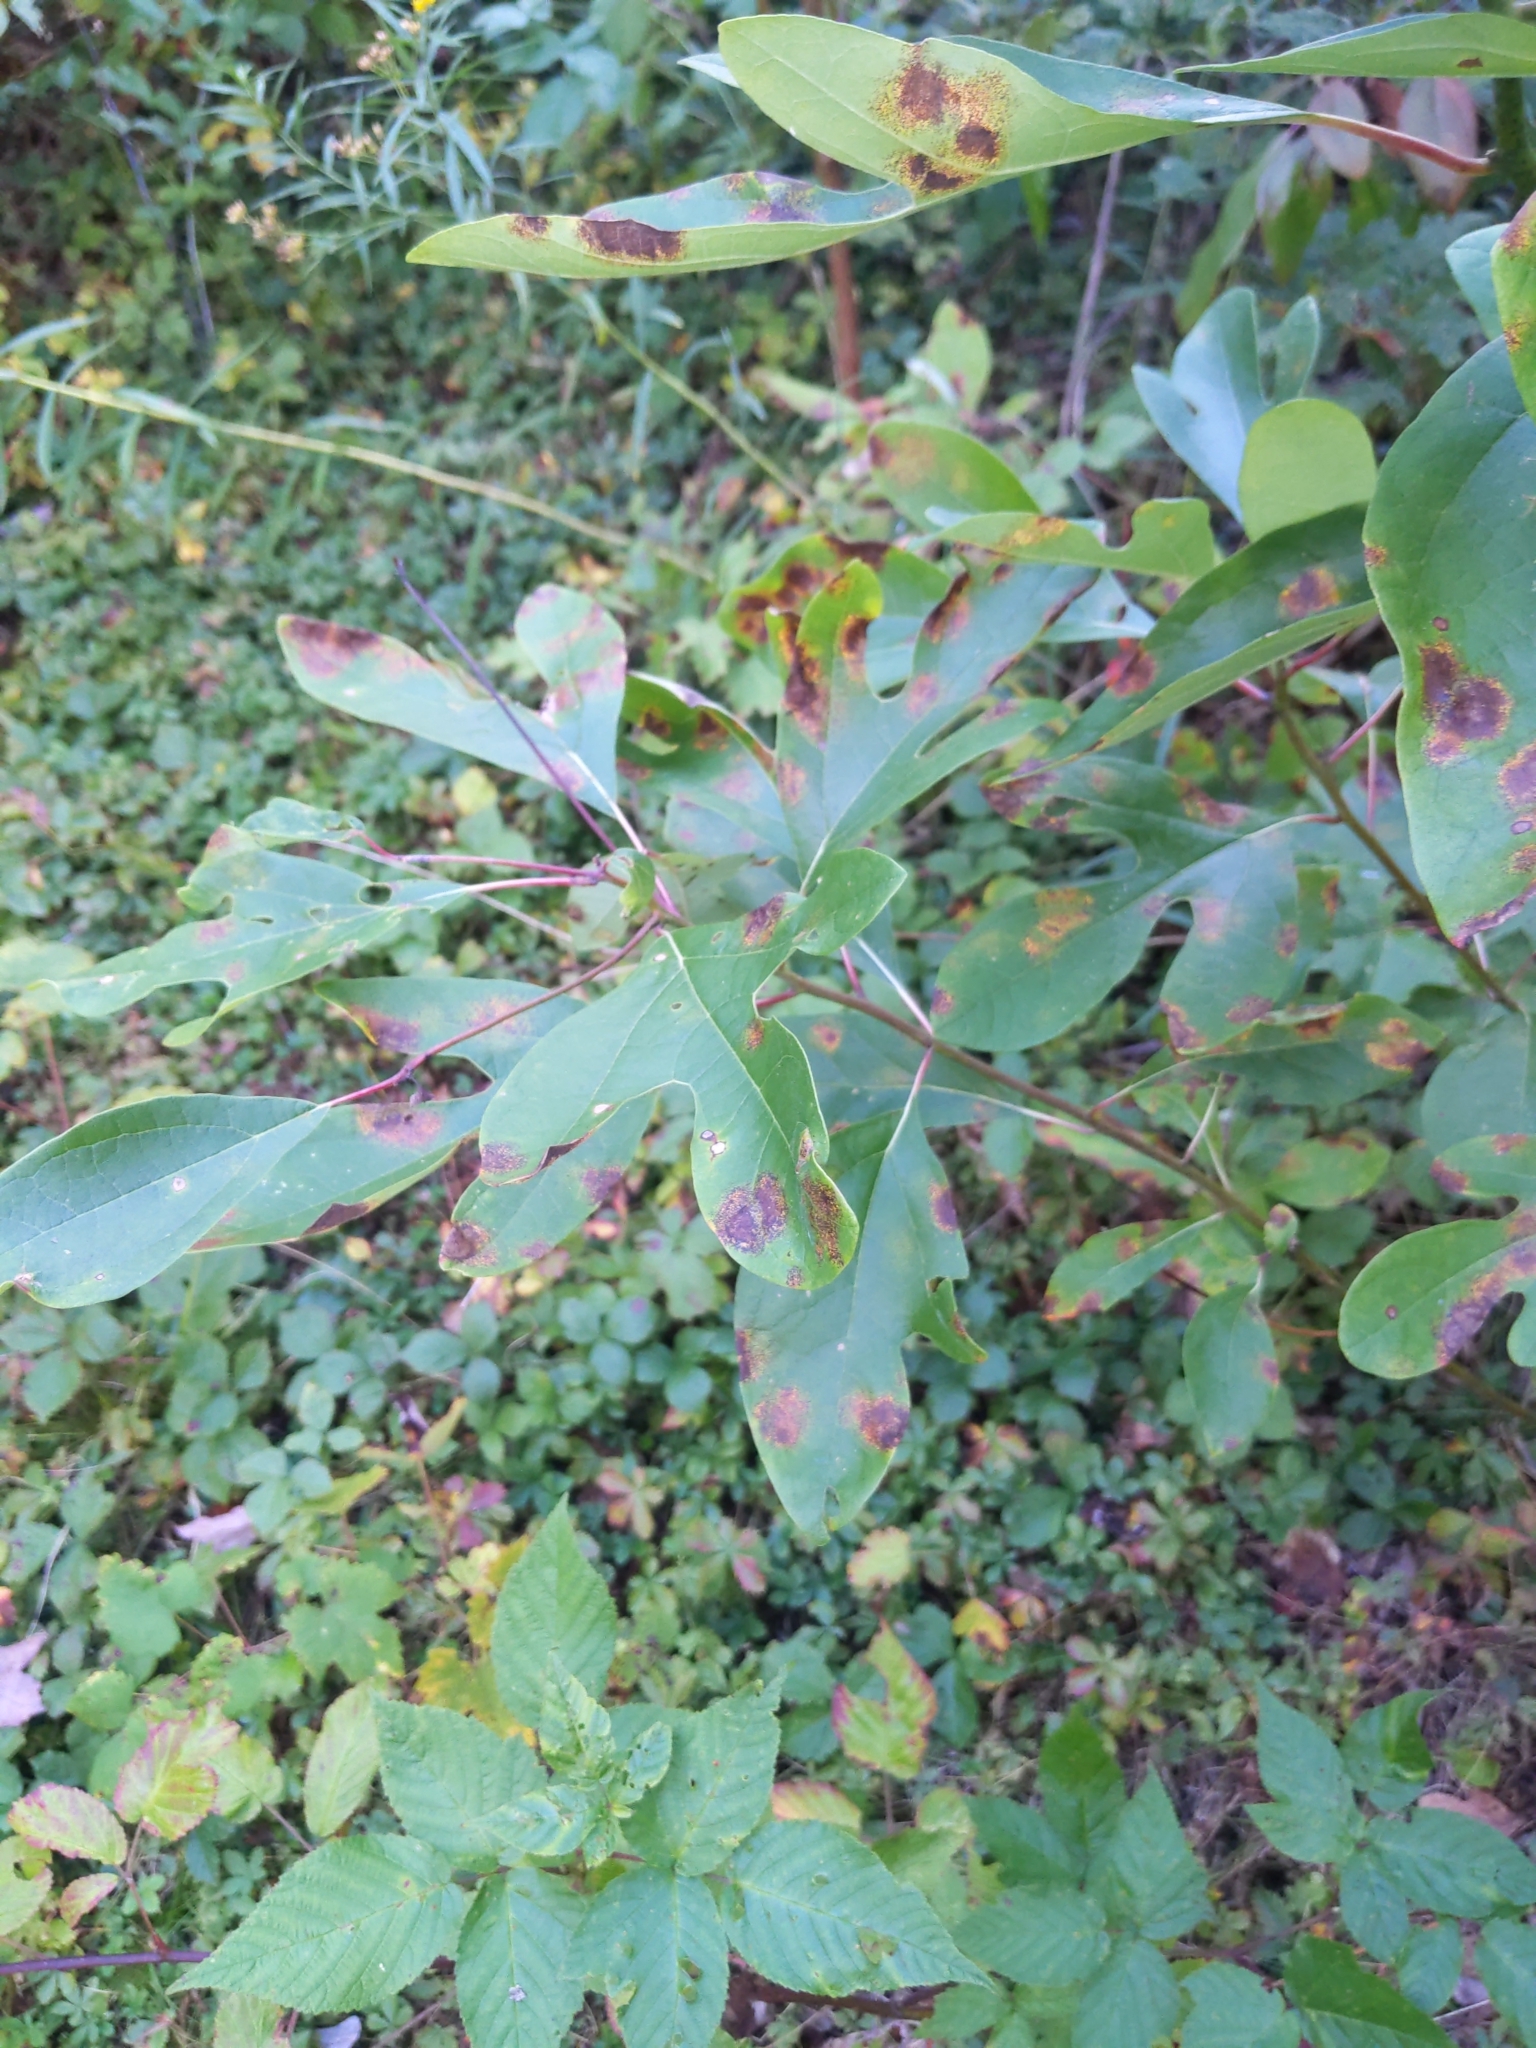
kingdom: Plantae
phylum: Tracheophyta
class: Magnoliopsida
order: Laurales
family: Lauraceae
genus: Sassafras
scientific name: Sassafras albidum
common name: Sassafras
